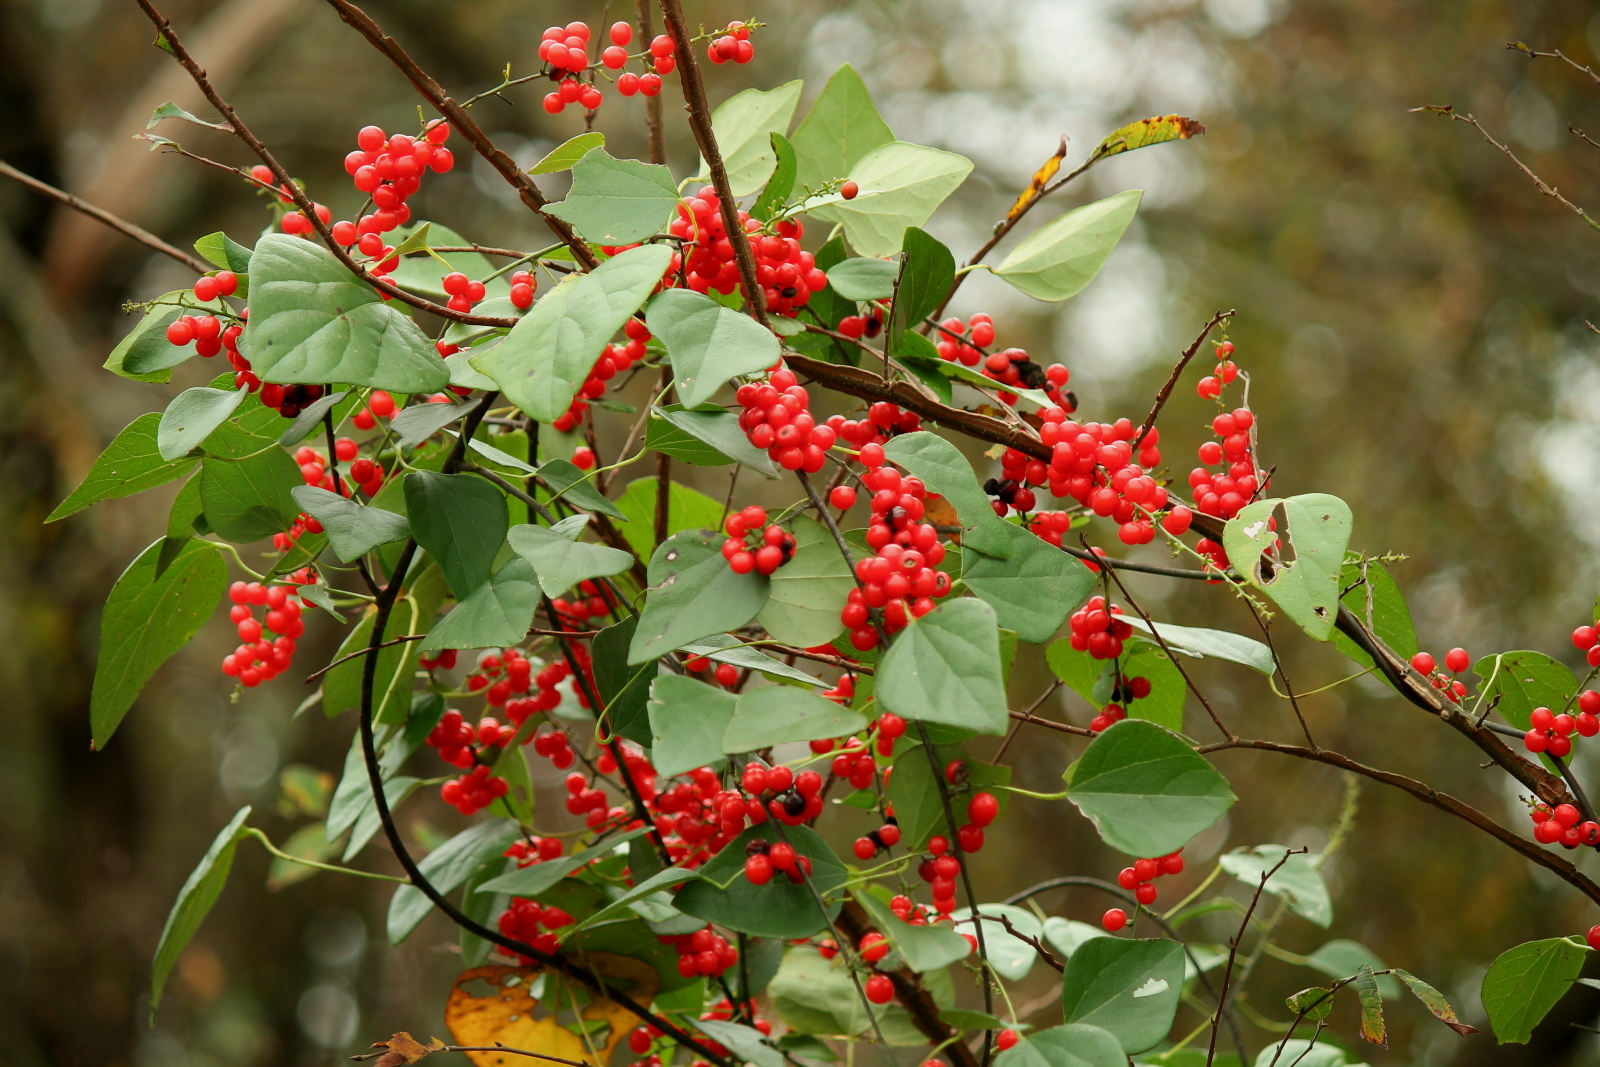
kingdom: Plantae
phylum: Tracheophyta
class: Magnoliopsida
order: Ranunculales
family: Menispermaceae
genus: Cocculus
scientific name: Cocculus carolinus
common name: Carolina moonseed
